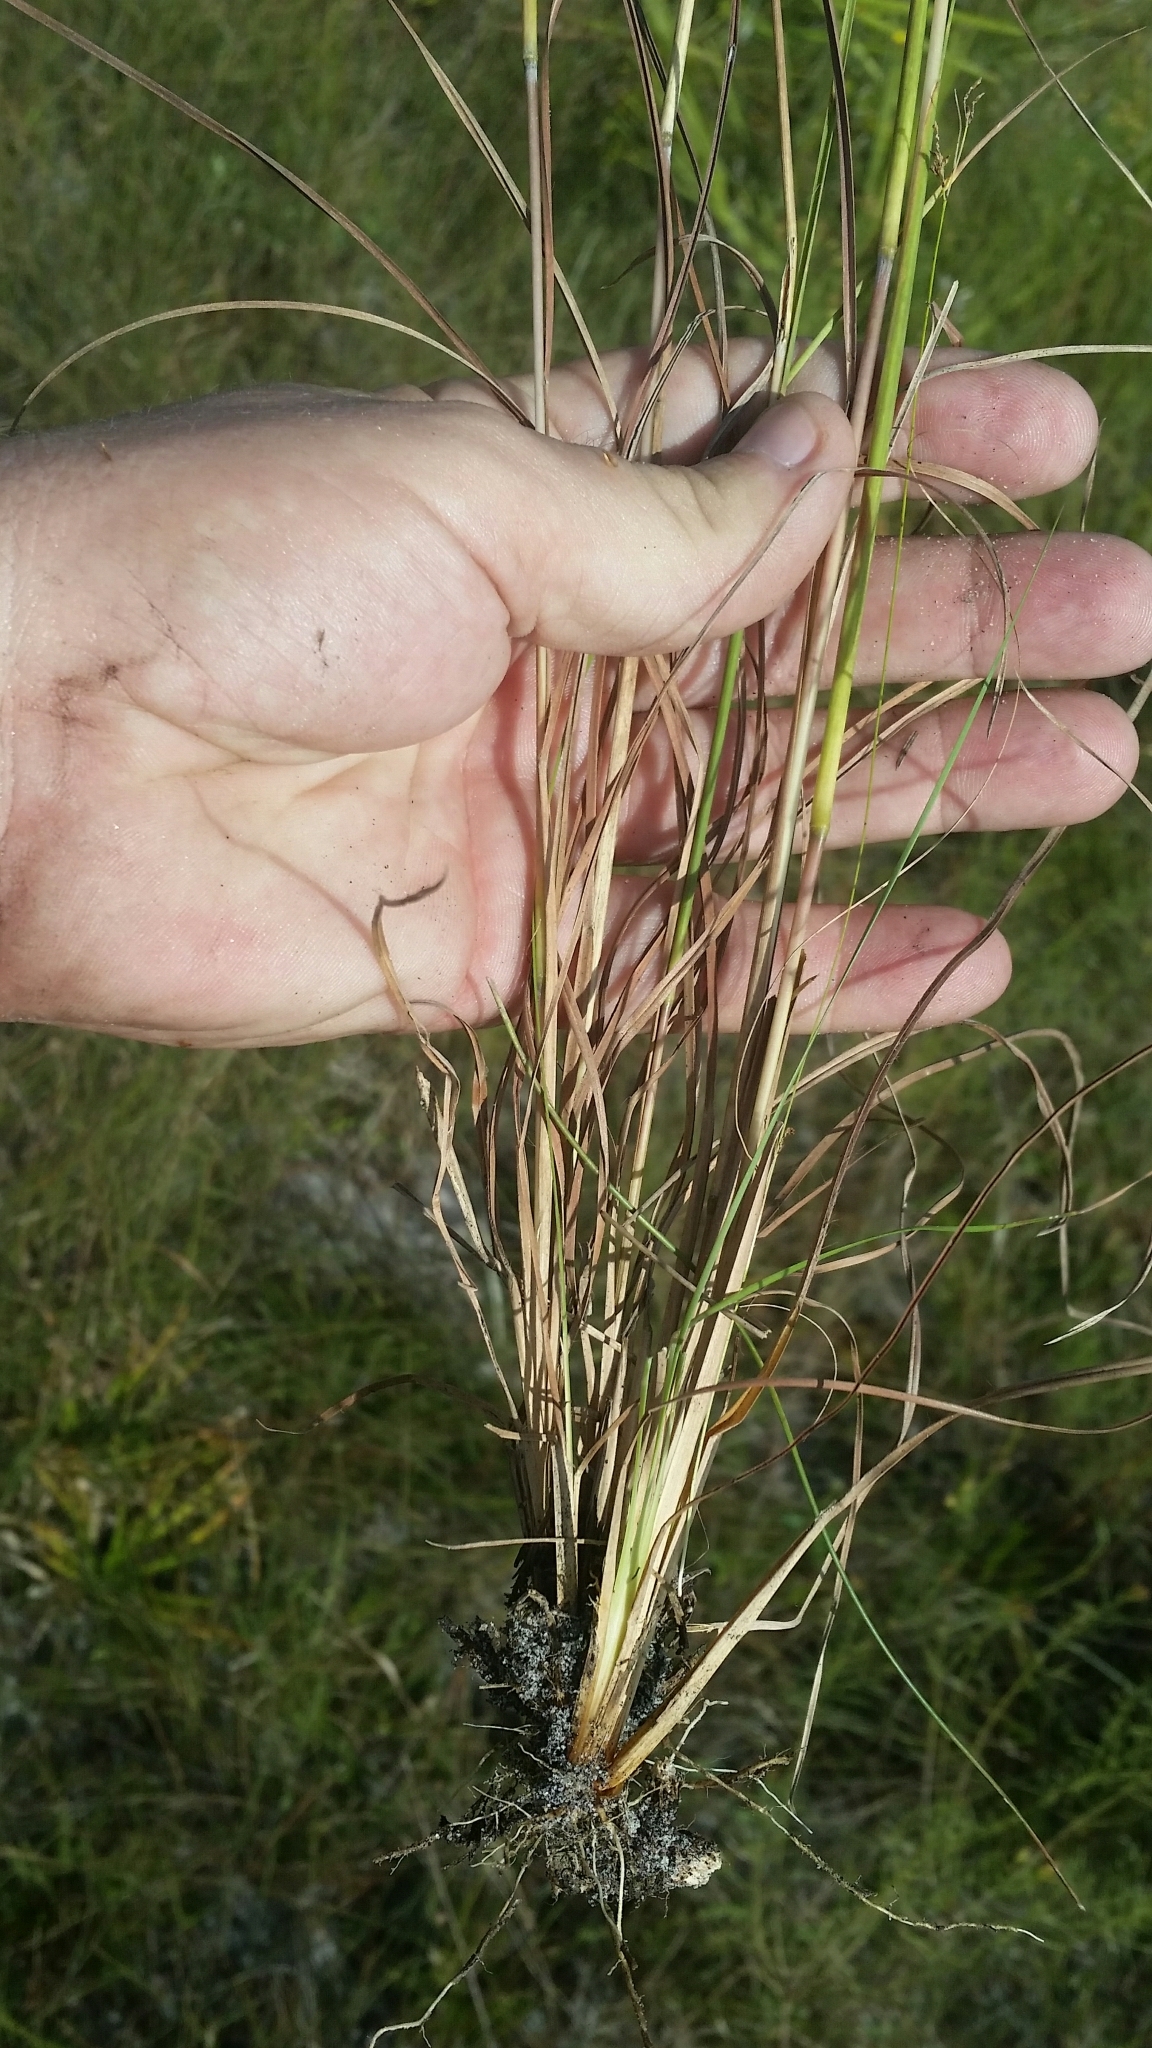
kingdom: Plantae
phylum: Tracheophyta
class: Liliopsida
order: Poales
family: Poaceae
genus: Andropogon
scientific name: Andropogon gyrans
